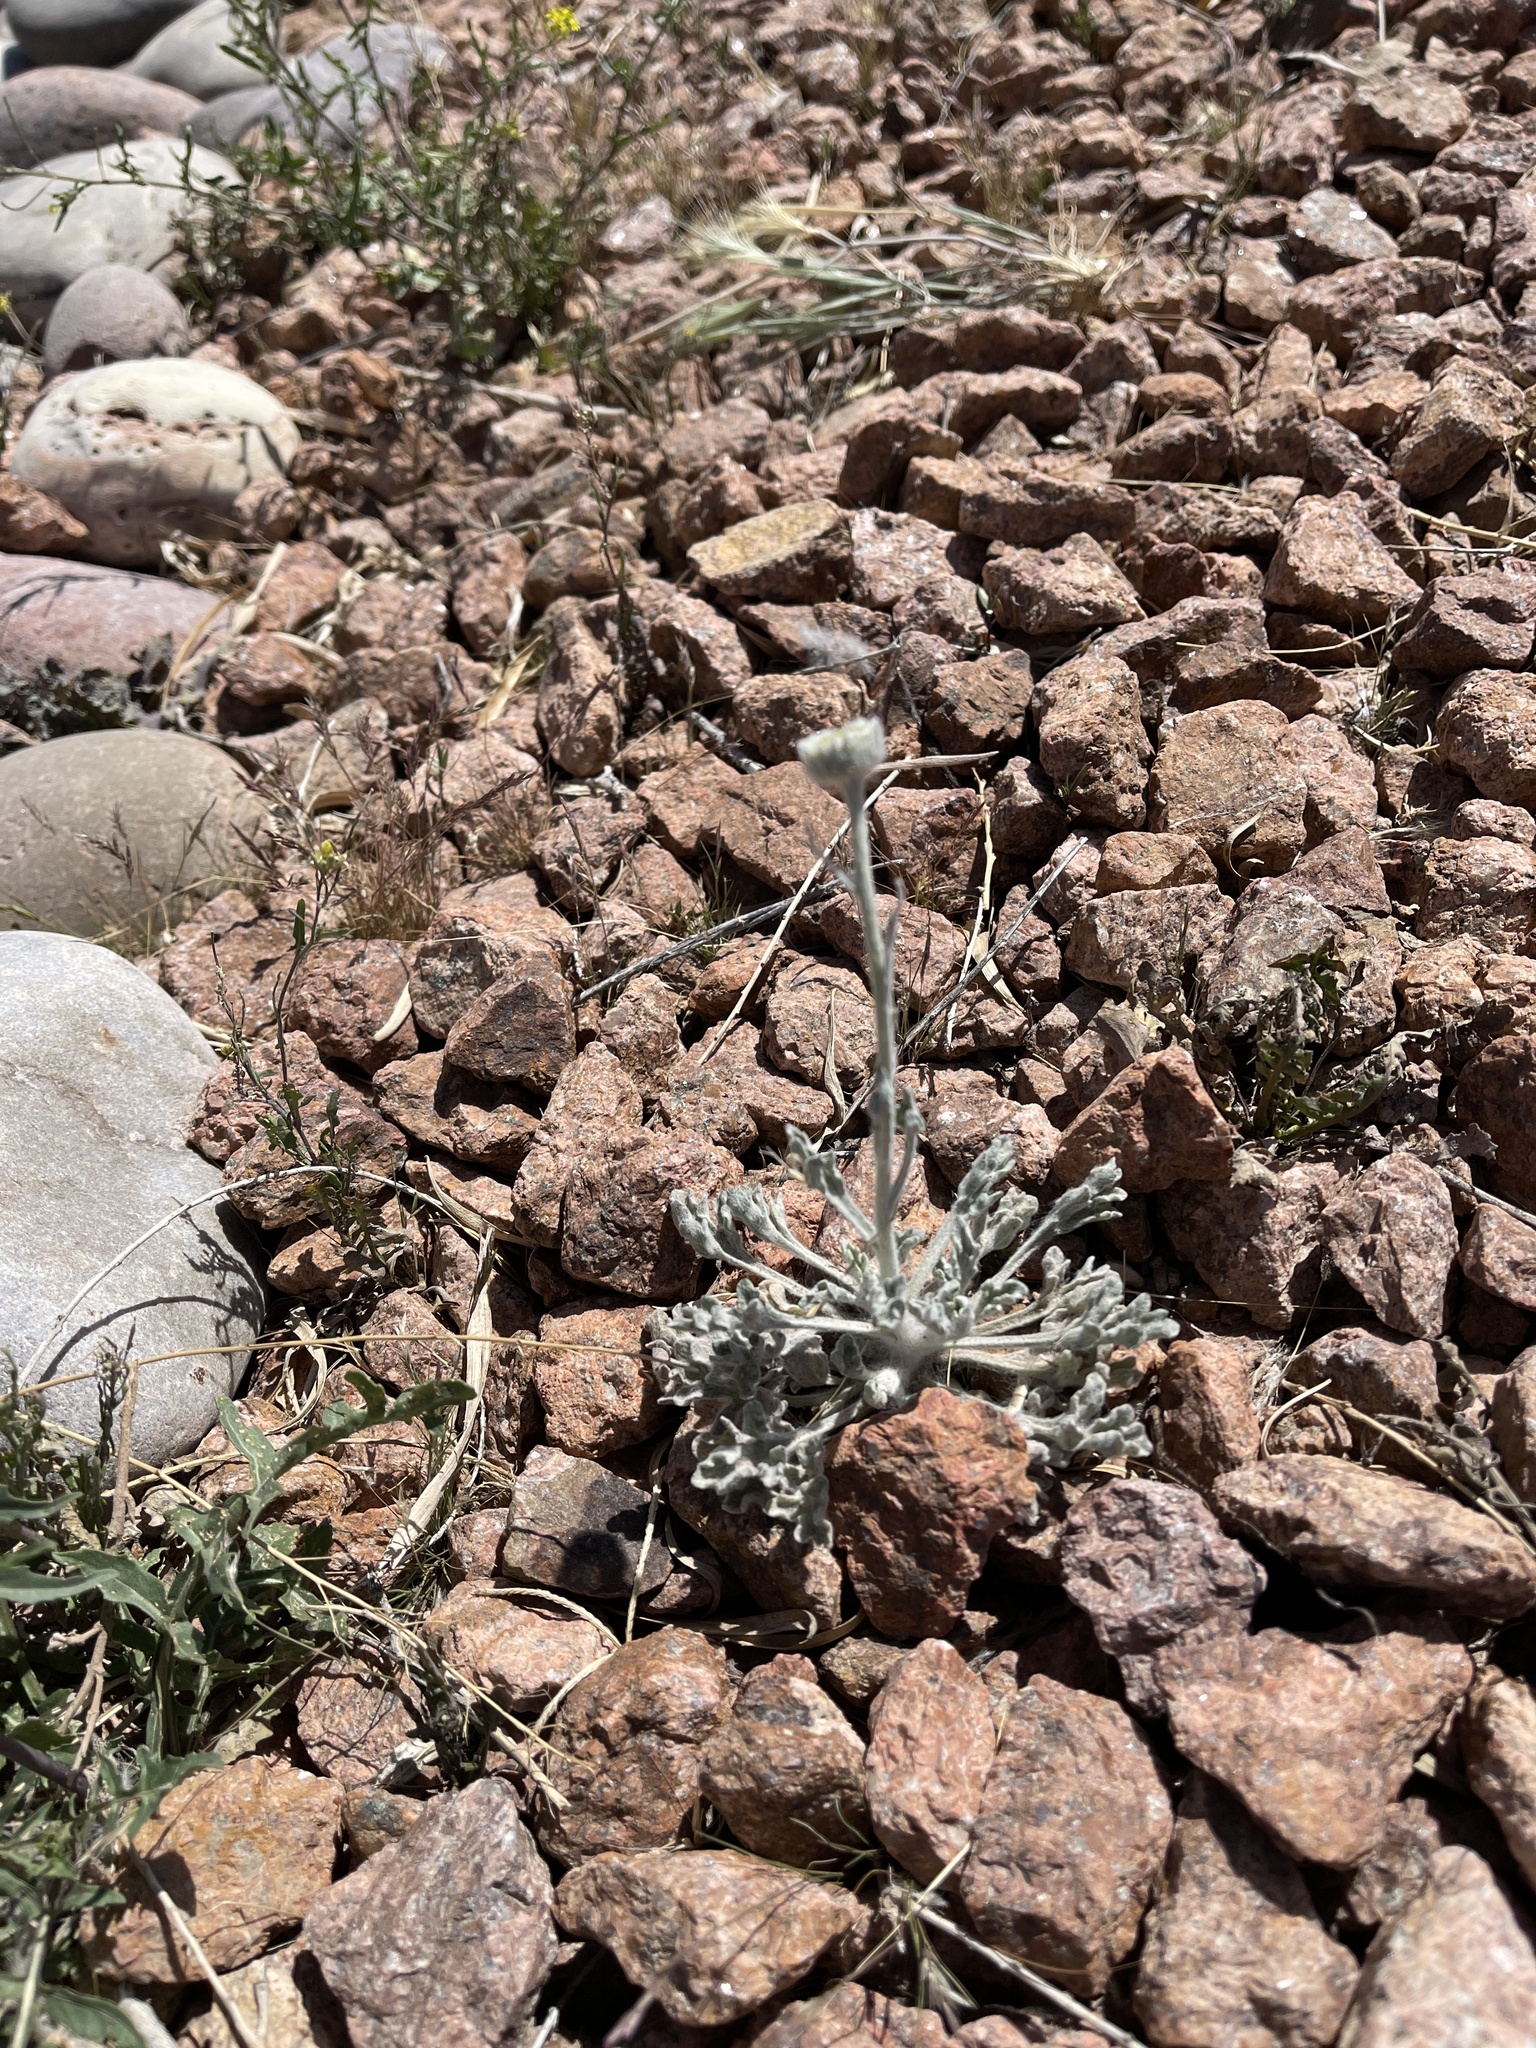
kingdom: Plantae
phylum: Tracheophyta
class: Magnoliopsida
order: Asterales
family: Asteraceae
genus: Baileya
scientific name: Baileya multiradiata
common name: Desert-marigold
